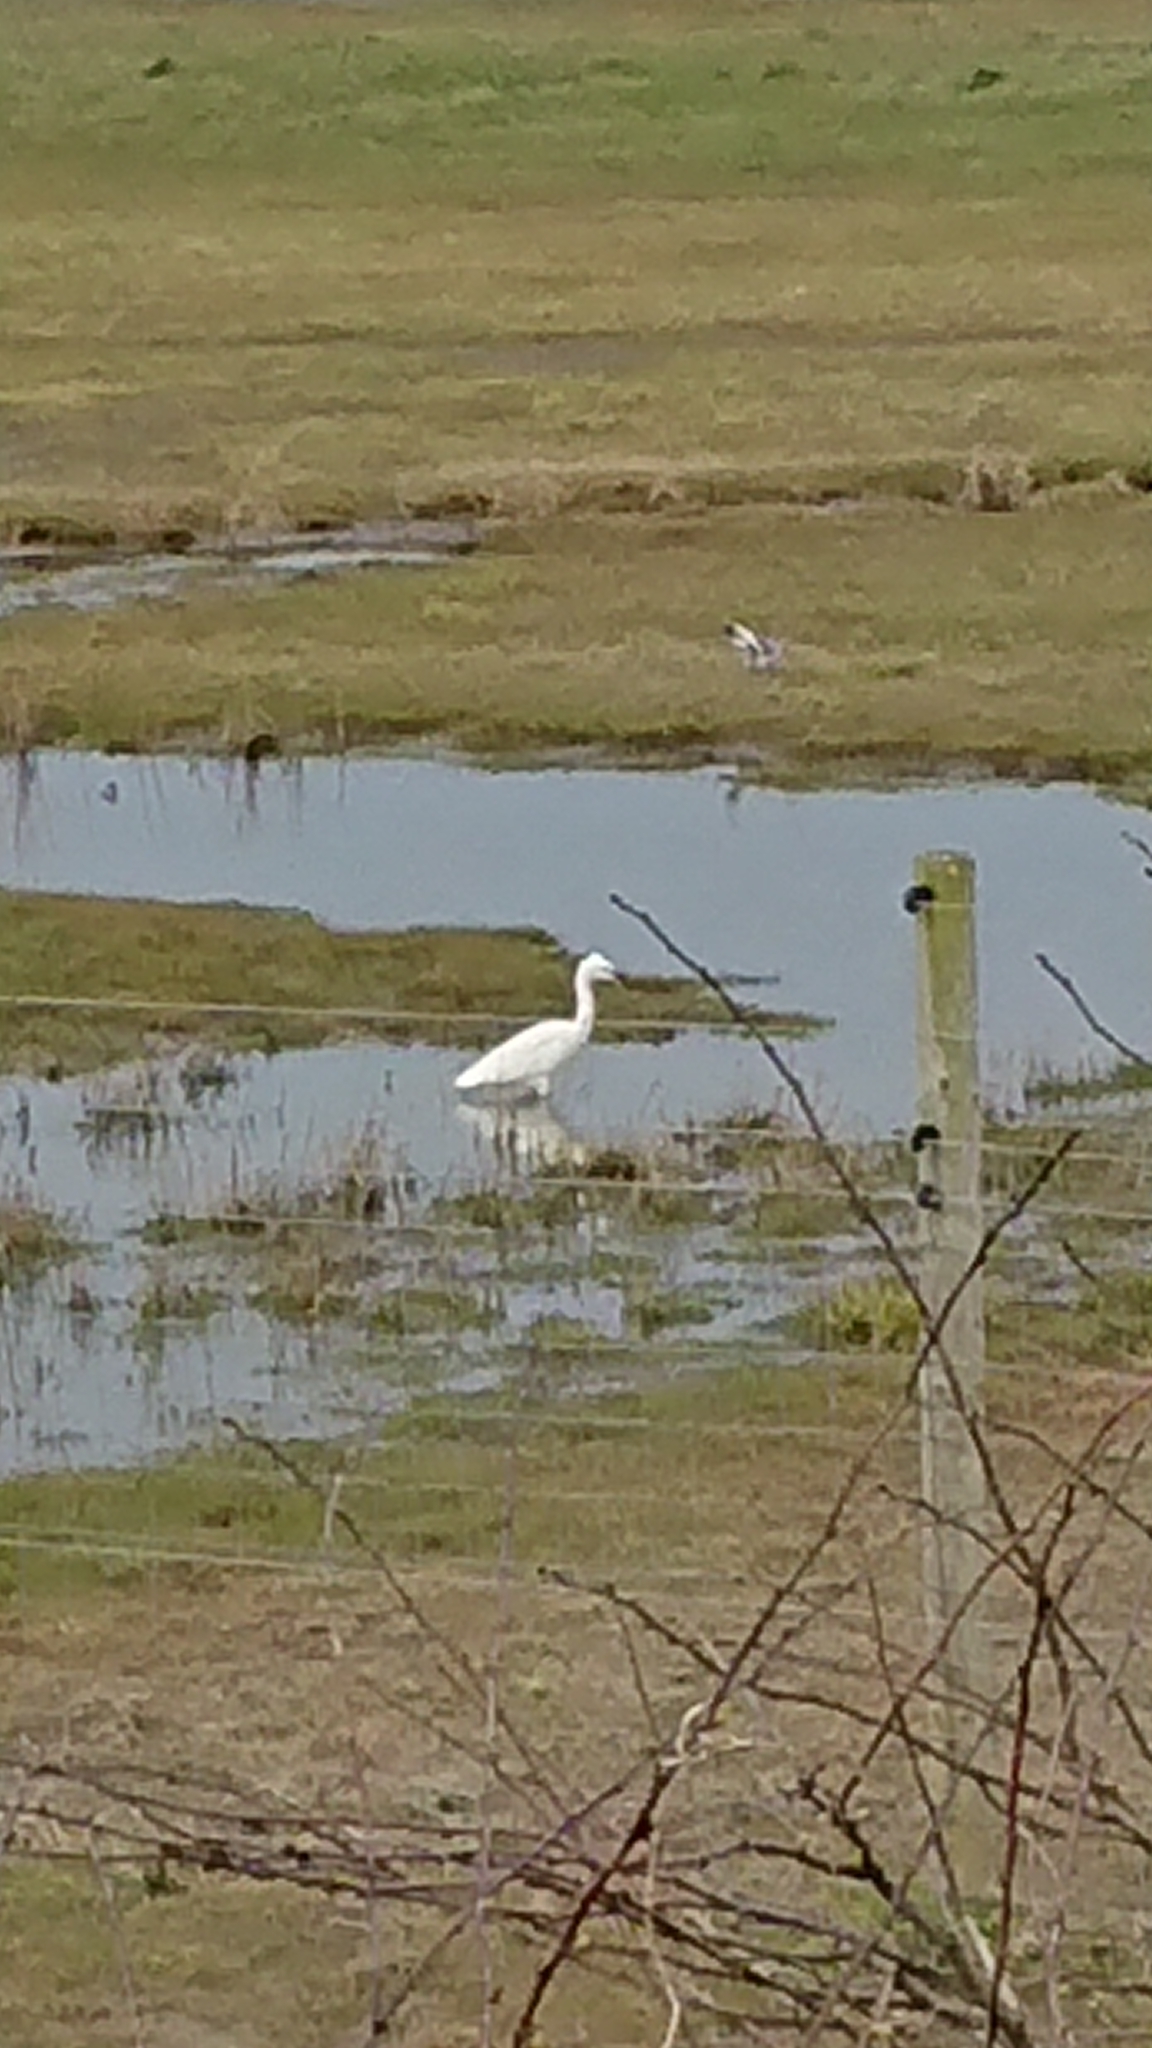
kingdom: Animalia
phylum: Chordata
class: Aves
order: Pelecaniformes
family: Ardeidae
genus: Egretta
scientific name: Egretta garzetta
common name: Little egret
